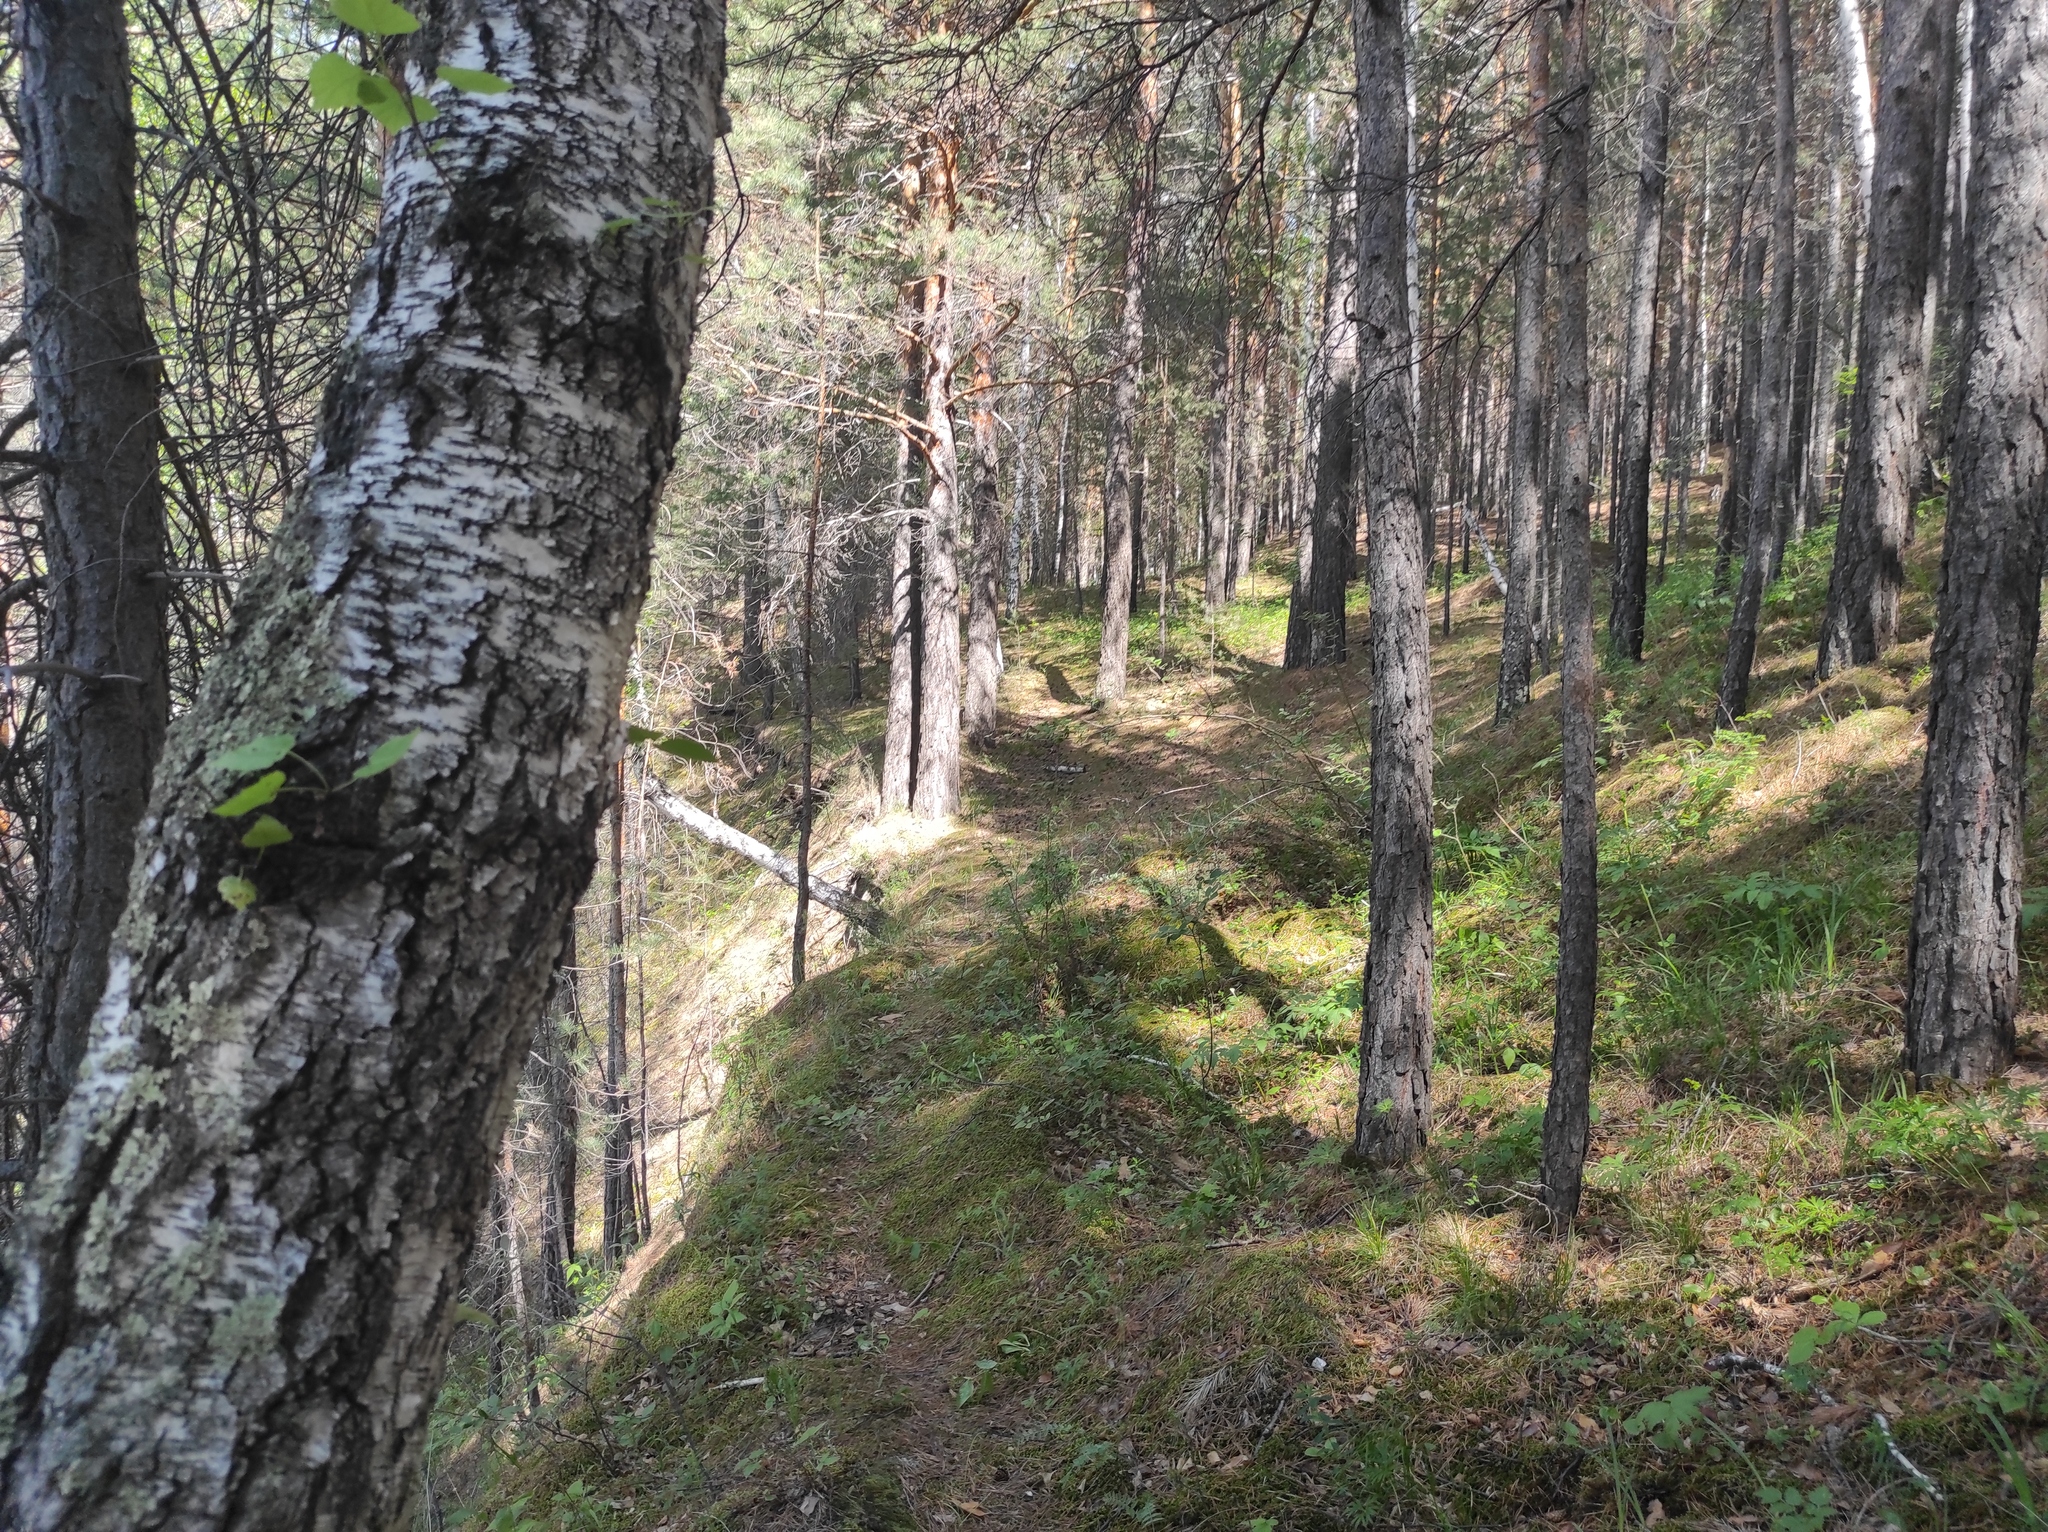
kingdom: Plantae
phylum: Tracheophyta
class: Pinopsida
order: Pinales
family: Pinaceae
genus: Pinus
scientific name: Pinus sylvestris
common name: Scots pine
